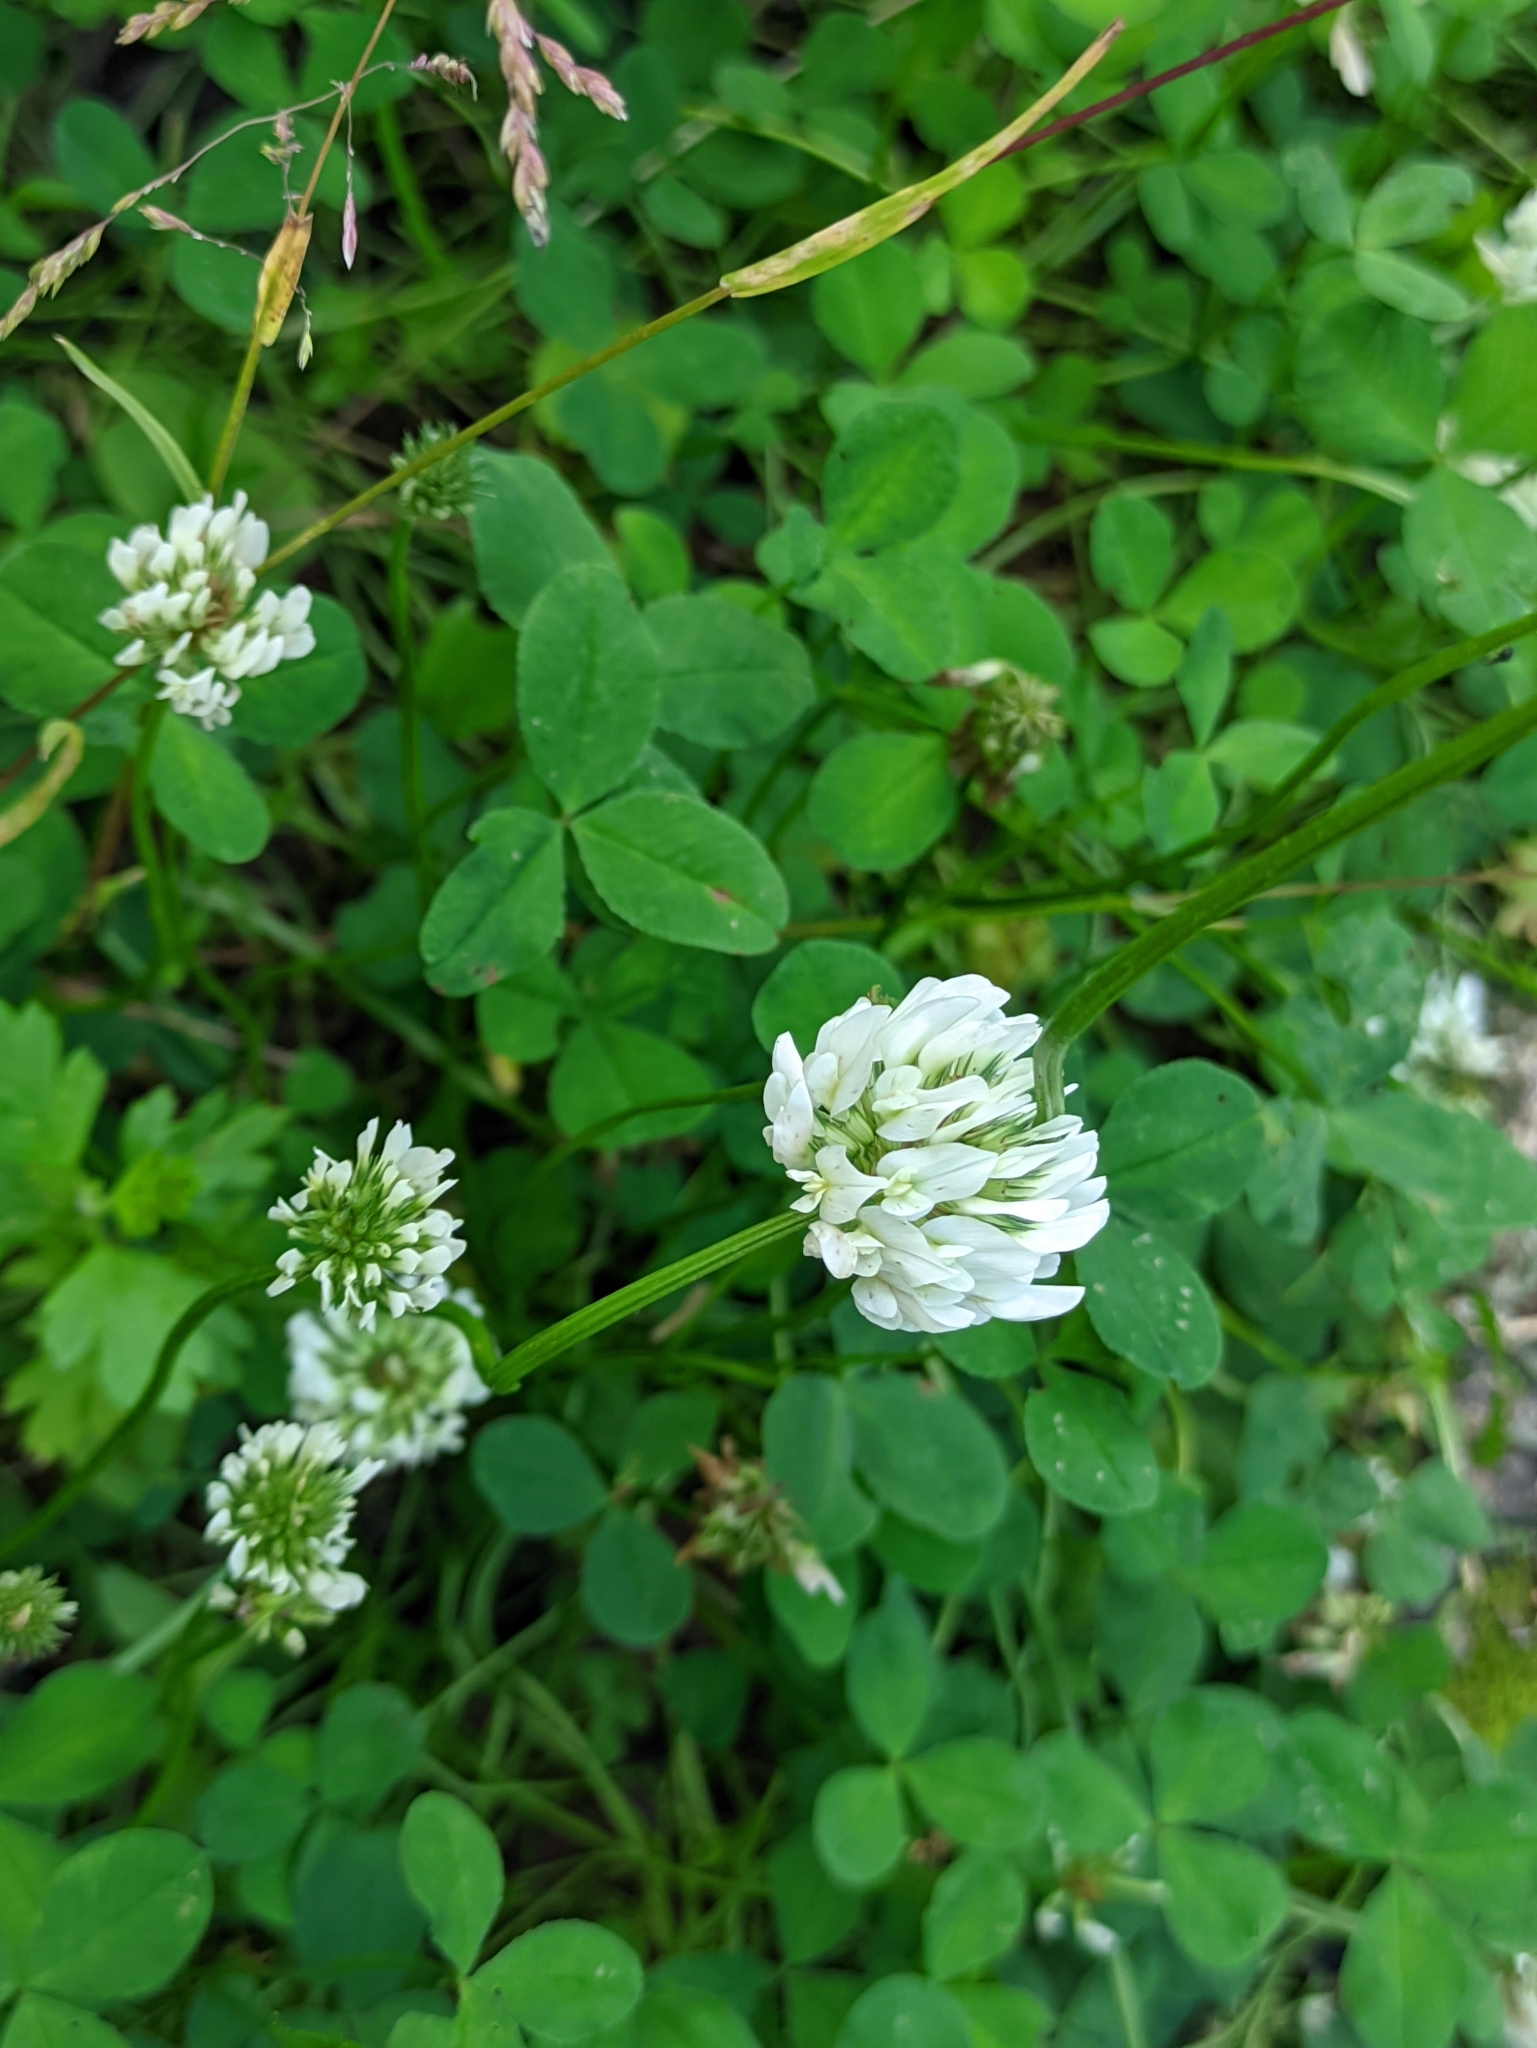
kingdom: Plantae
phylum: Tracheophyta
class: Magnoliopsida
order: Fabales
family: Fabaceae
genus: Trifolium
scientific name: Trifolium repens
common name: White clover
